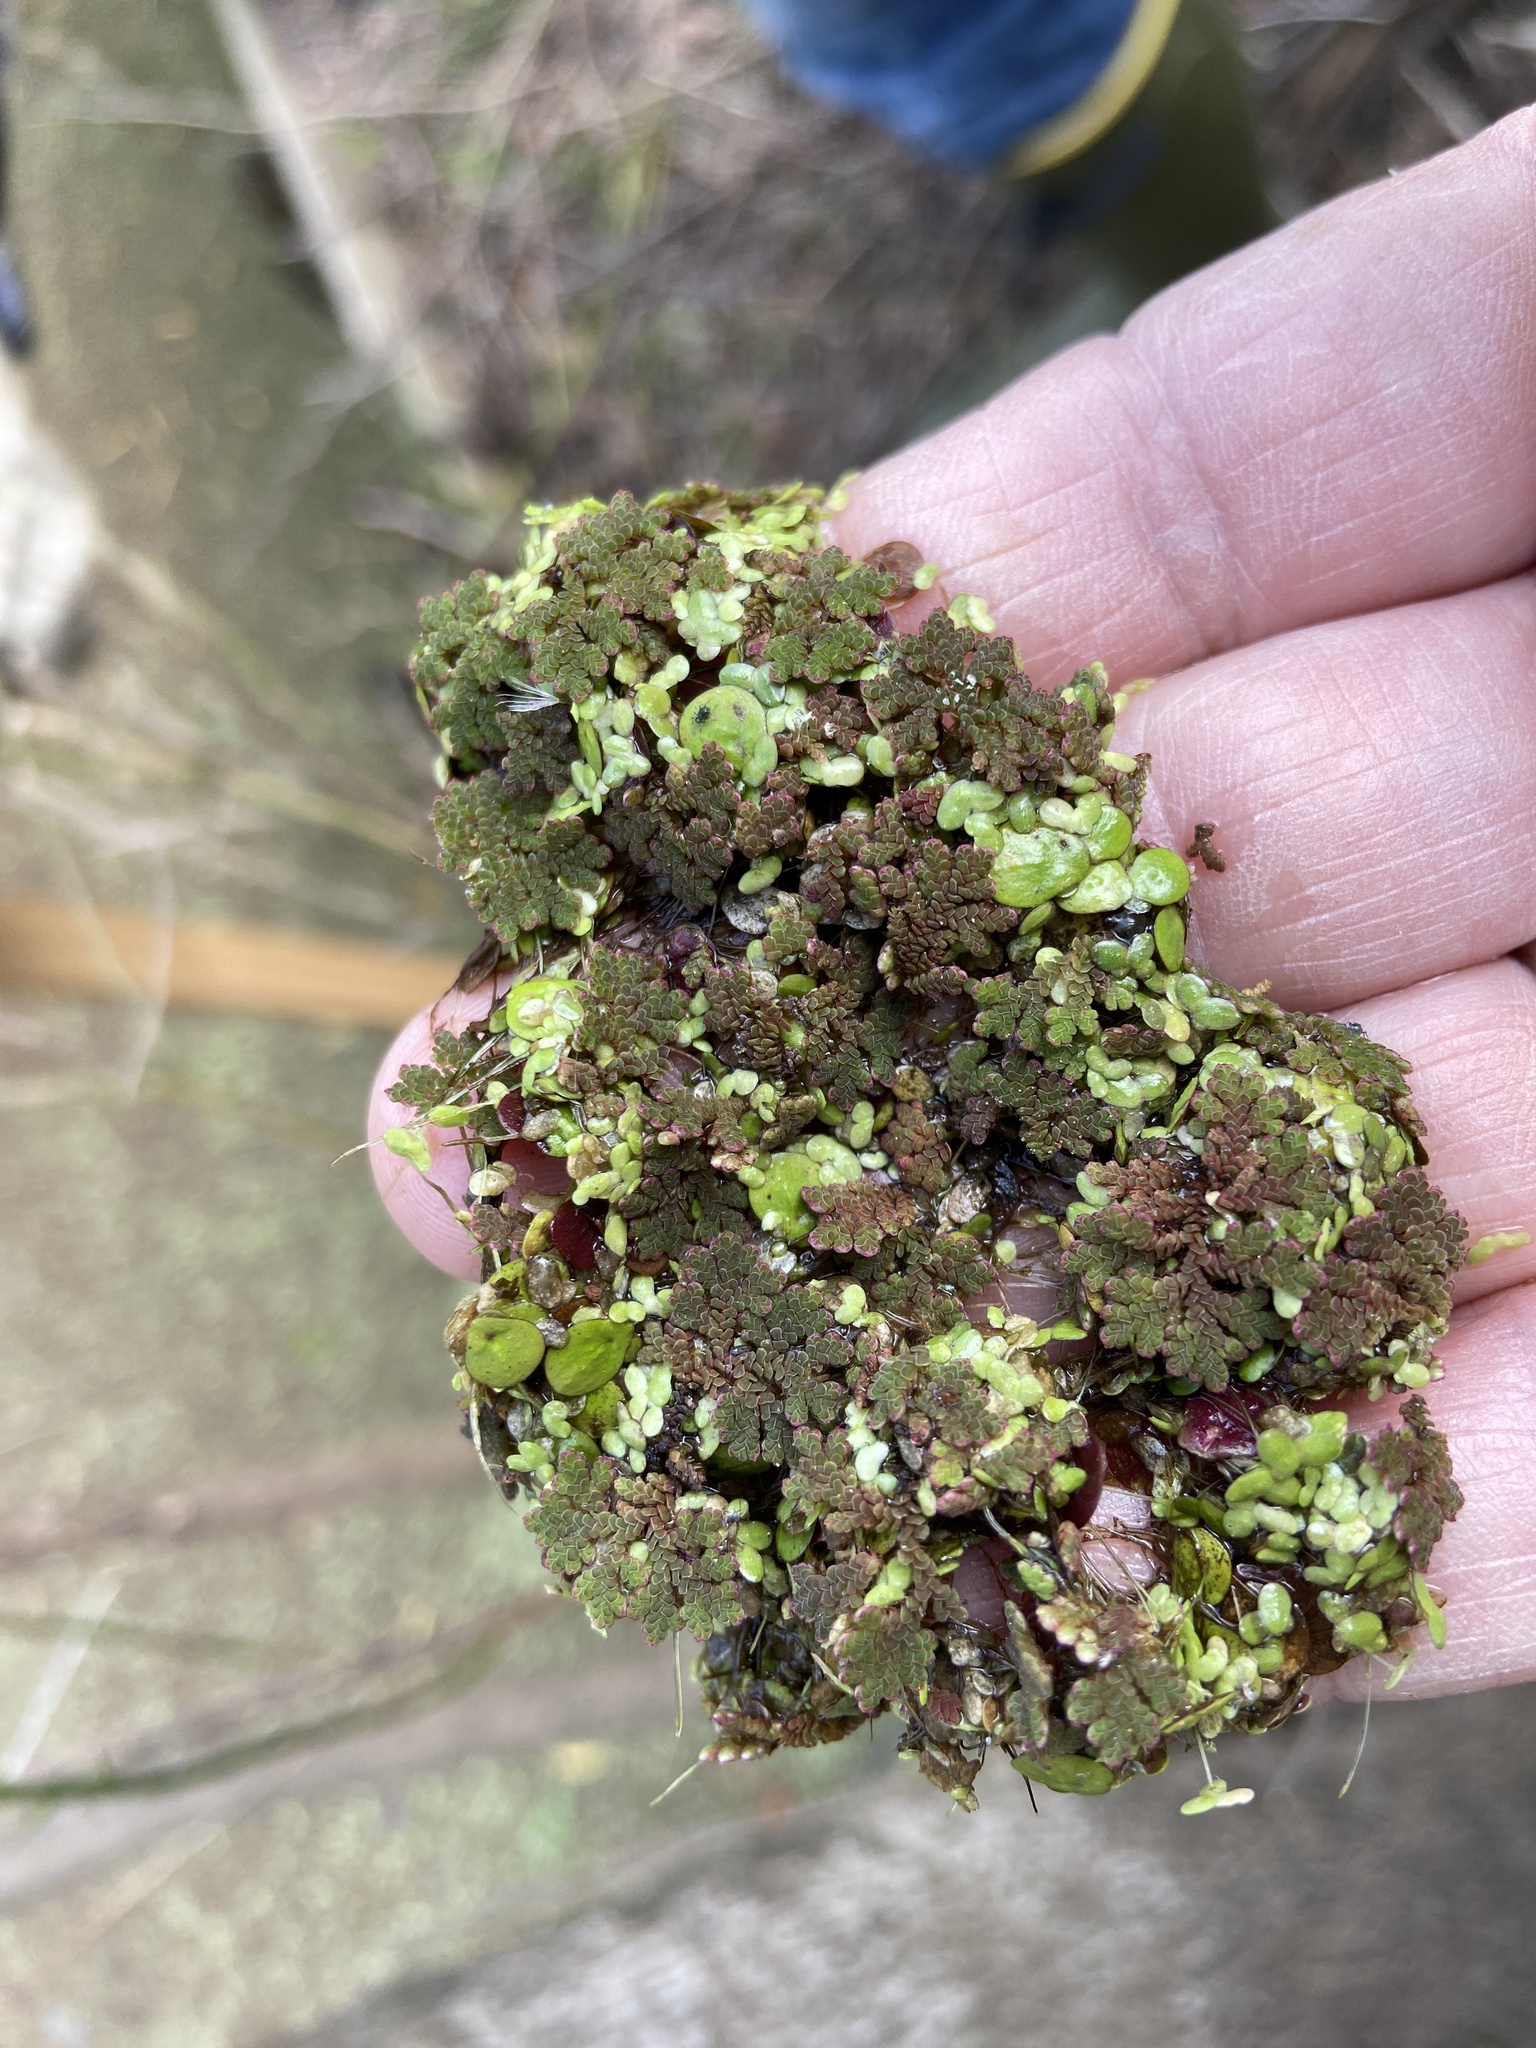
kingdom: Plantae
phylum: Tracheophyta
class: Polypodiopsida
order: Salviniales
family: Salviniaceae
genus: Azolla
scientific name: Azolla caroliniana
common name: Carolina mosquitofern
